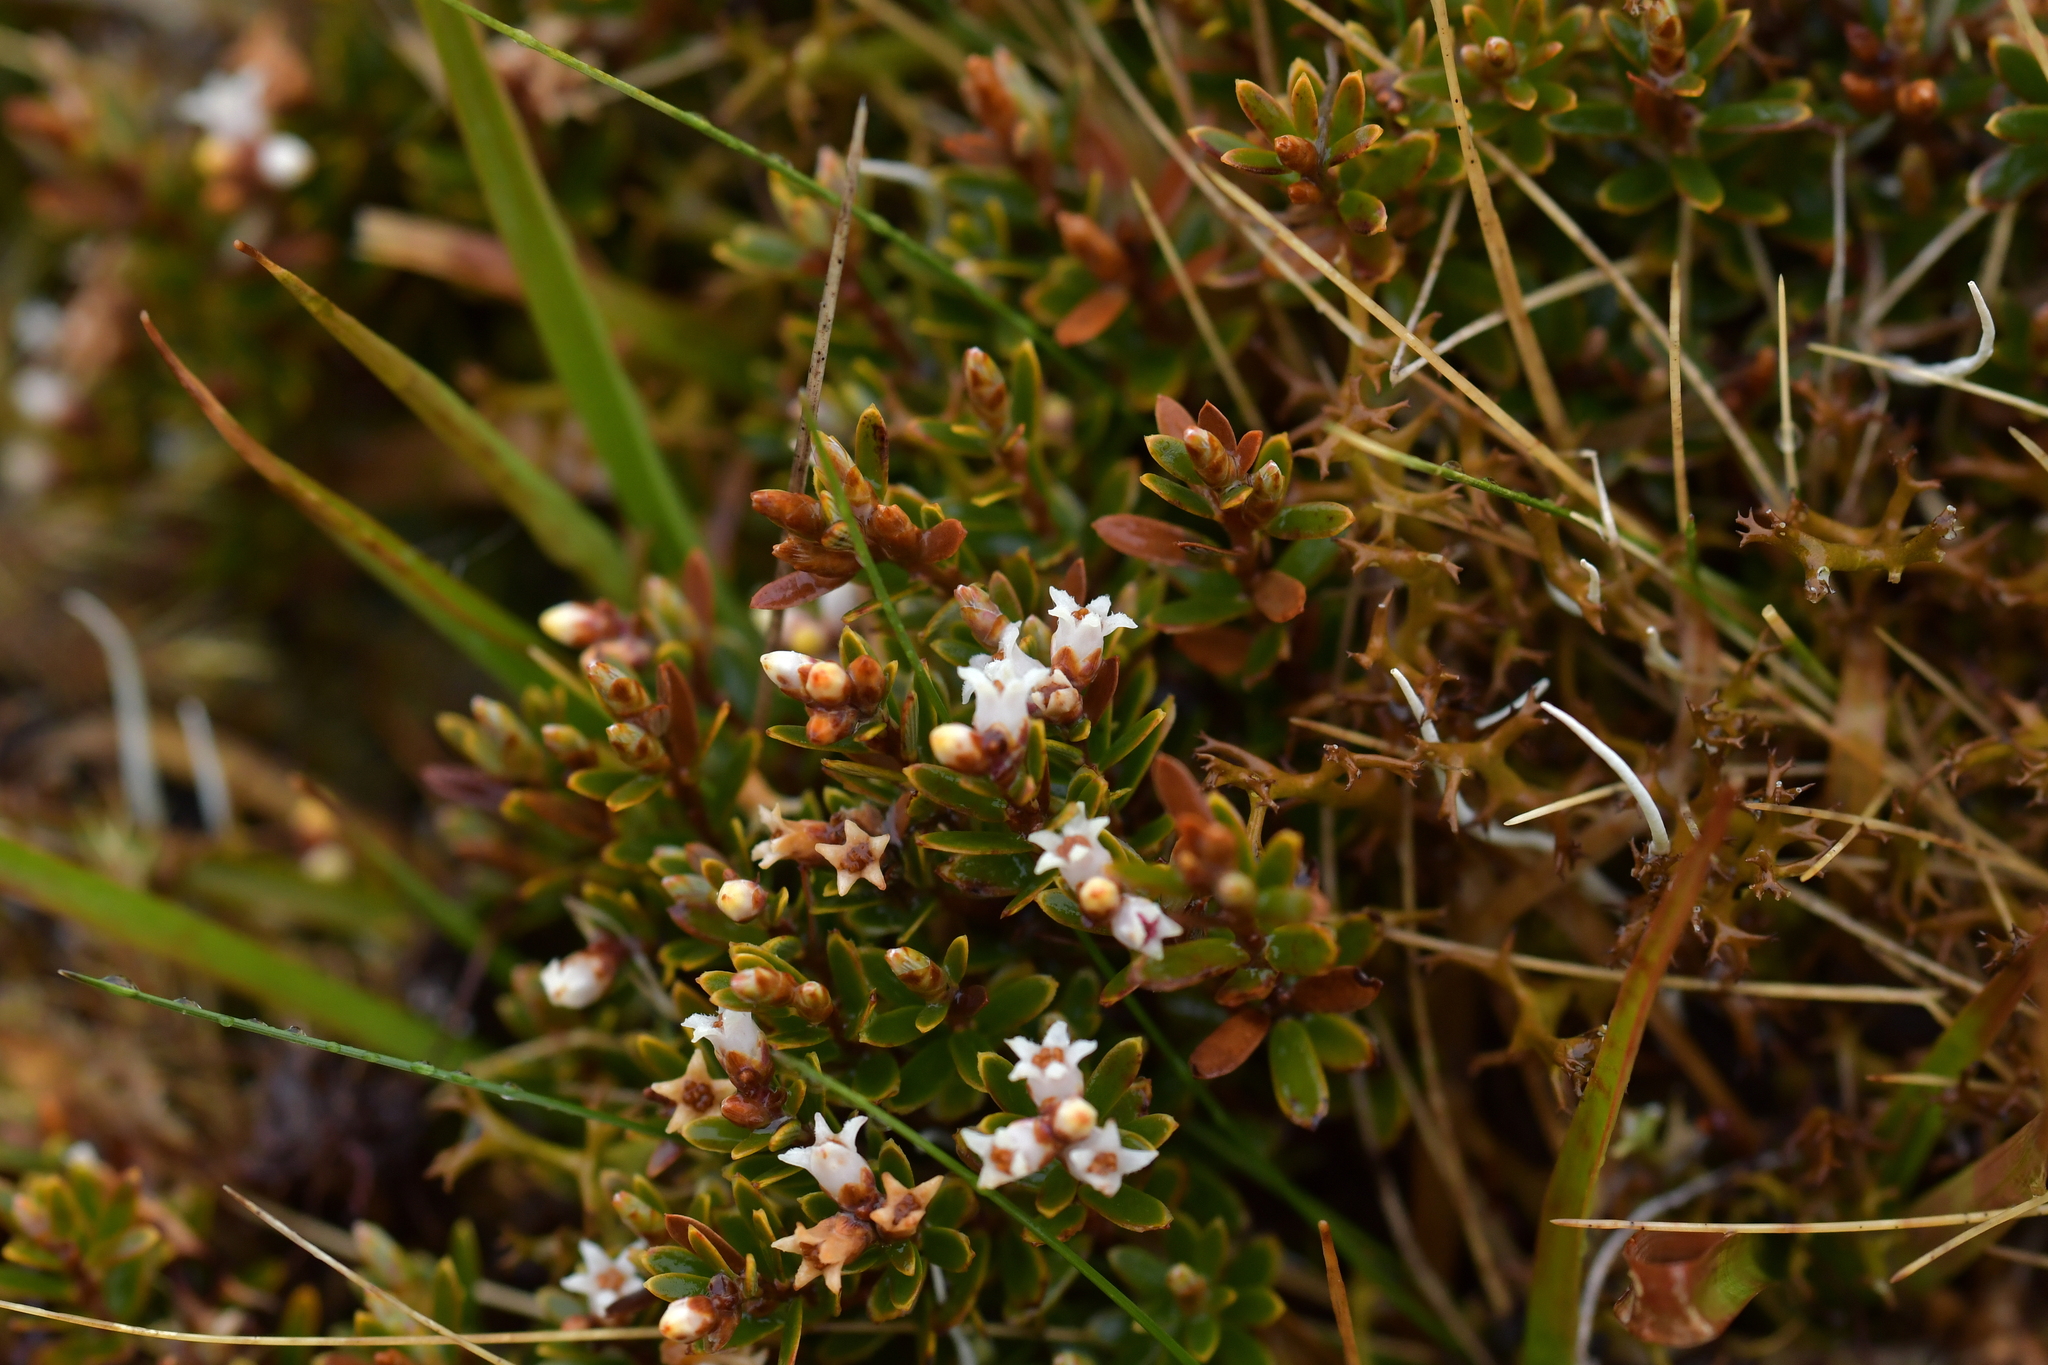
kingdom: Plantae
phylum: Tracheophyta
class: Magnoliopsida
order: Ericales
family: Ericaceae
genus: Pentachondra
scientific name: Pentachondra pumila
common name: Carpet-heath
